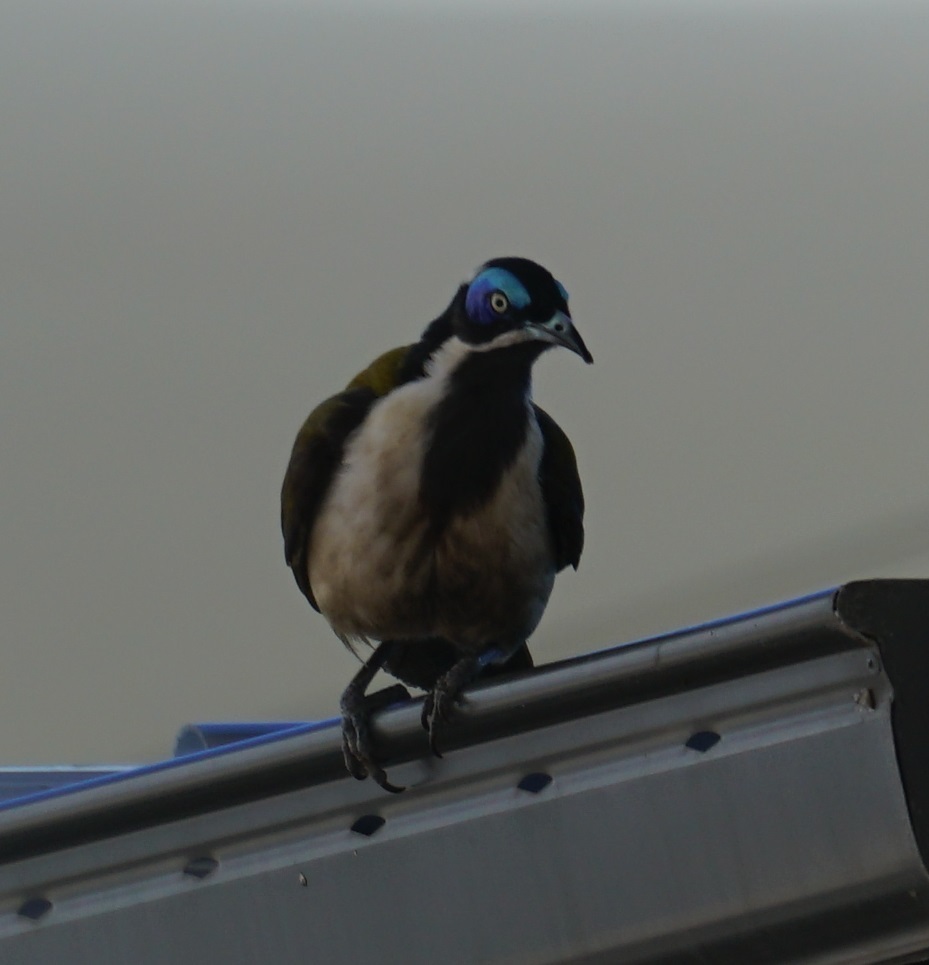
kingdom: Animalia
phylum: Chordata
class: Aves
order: Passeriformes
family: Meliphagidae
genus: Entomyzon
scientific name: Entomyzon cyanotis
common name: Blue-faced honeyeater
